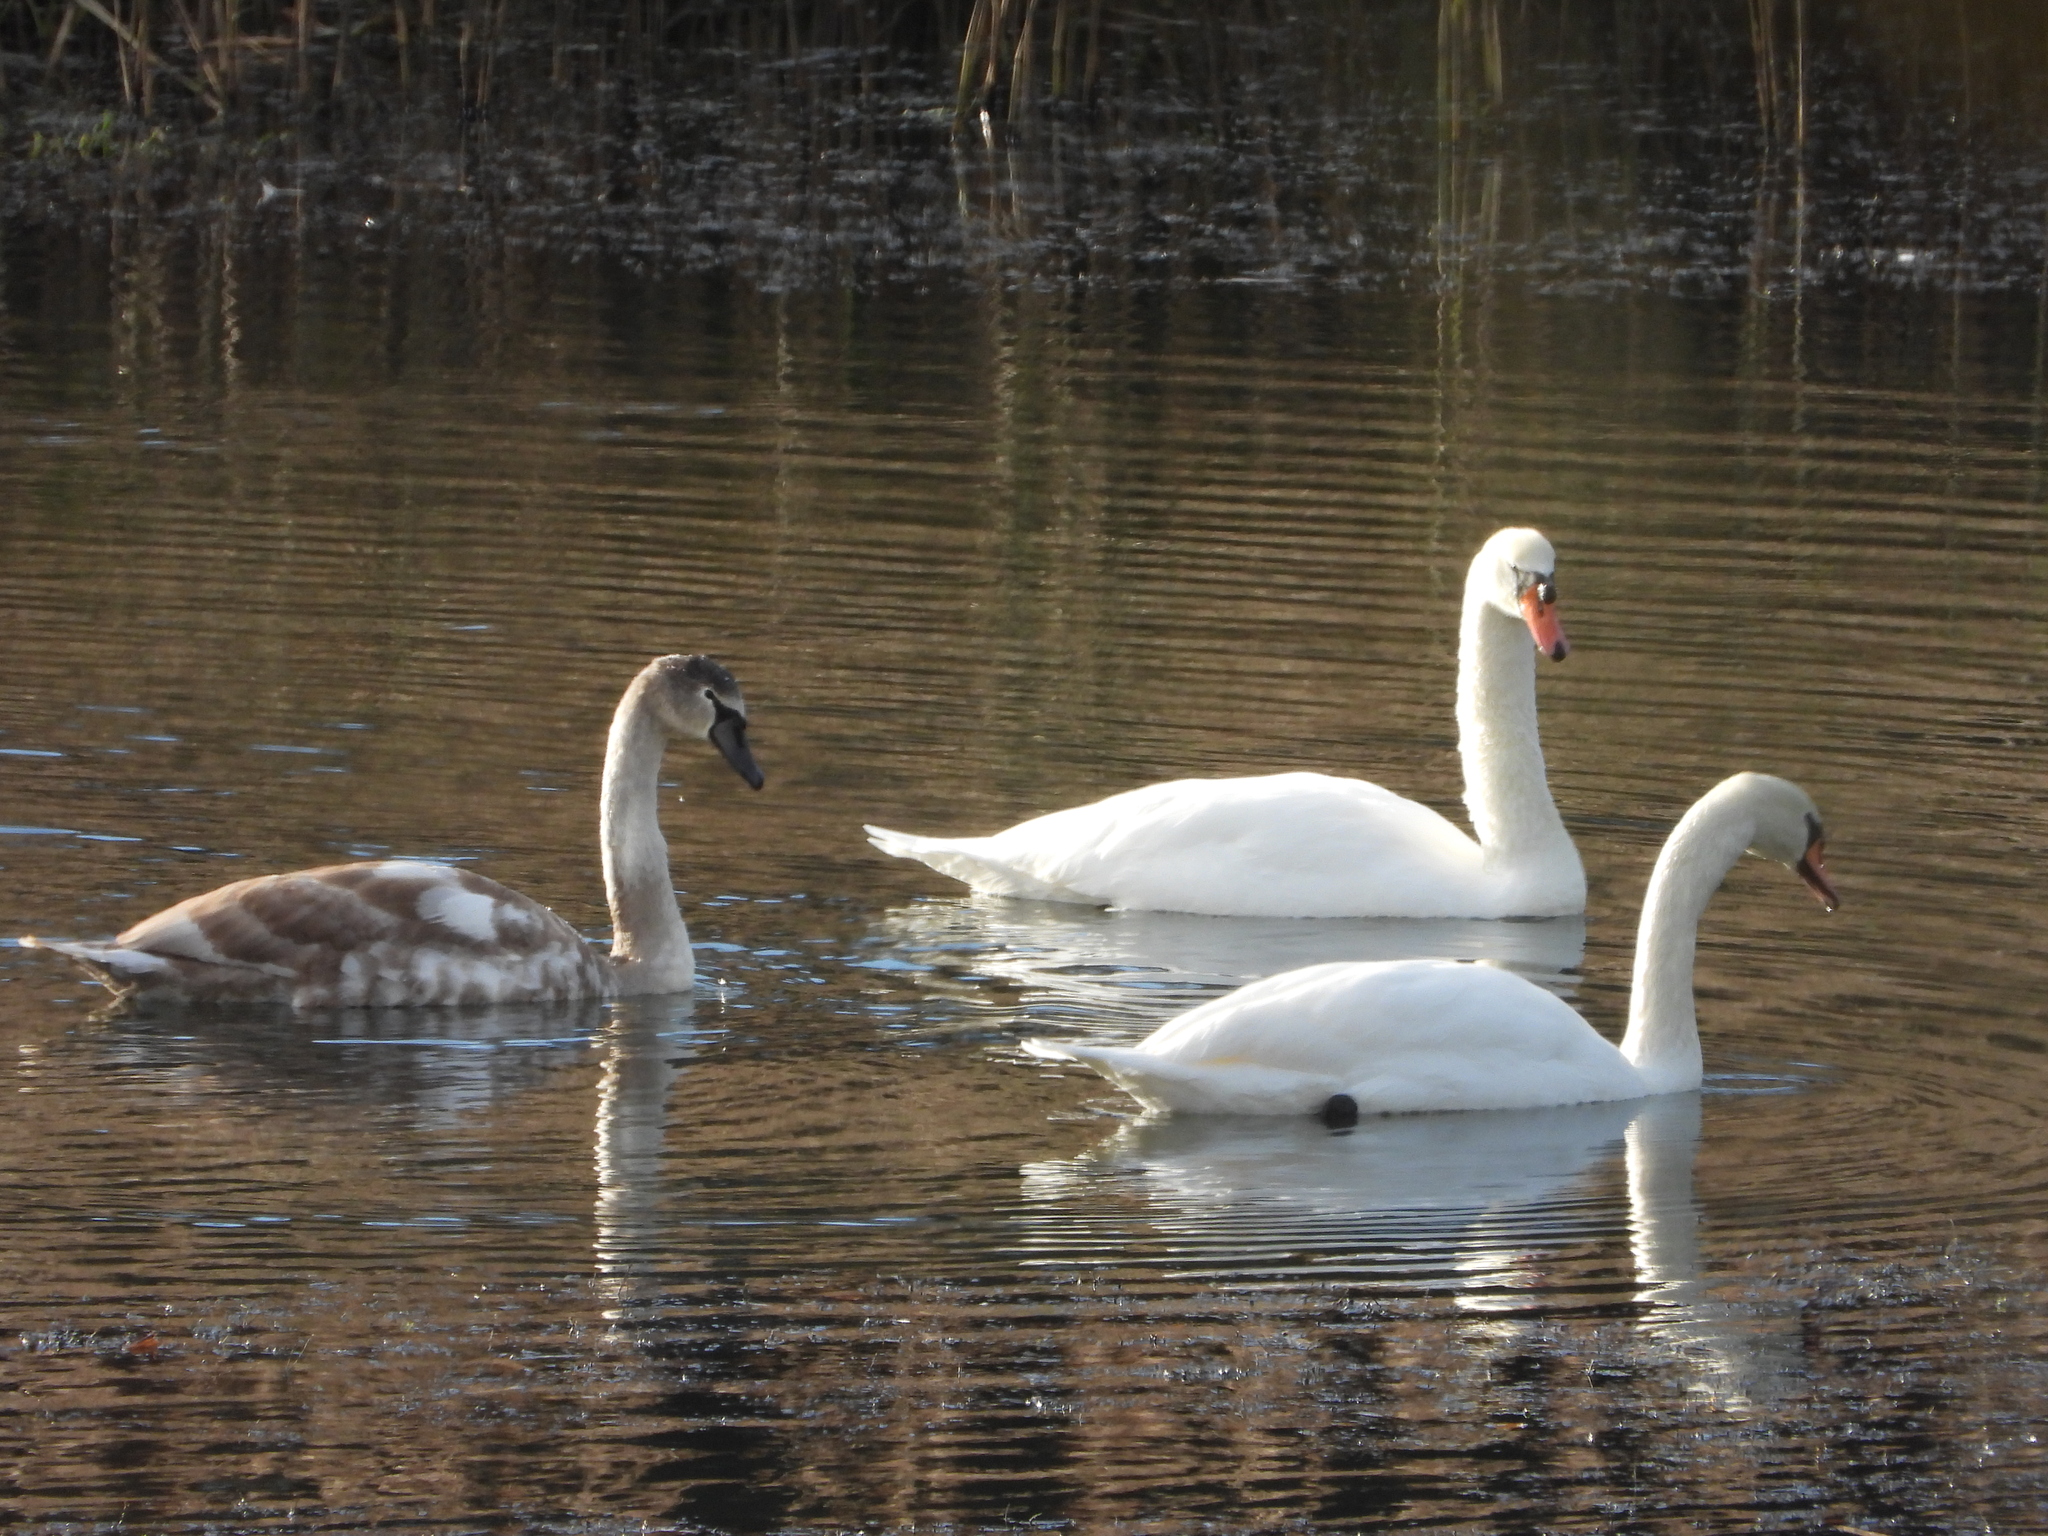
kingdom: Animalia
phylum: Chordata
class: Aves
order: Anseriformes
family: Anatidae
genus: Cygnus
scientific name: Cygnus olor
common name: Mute swan
